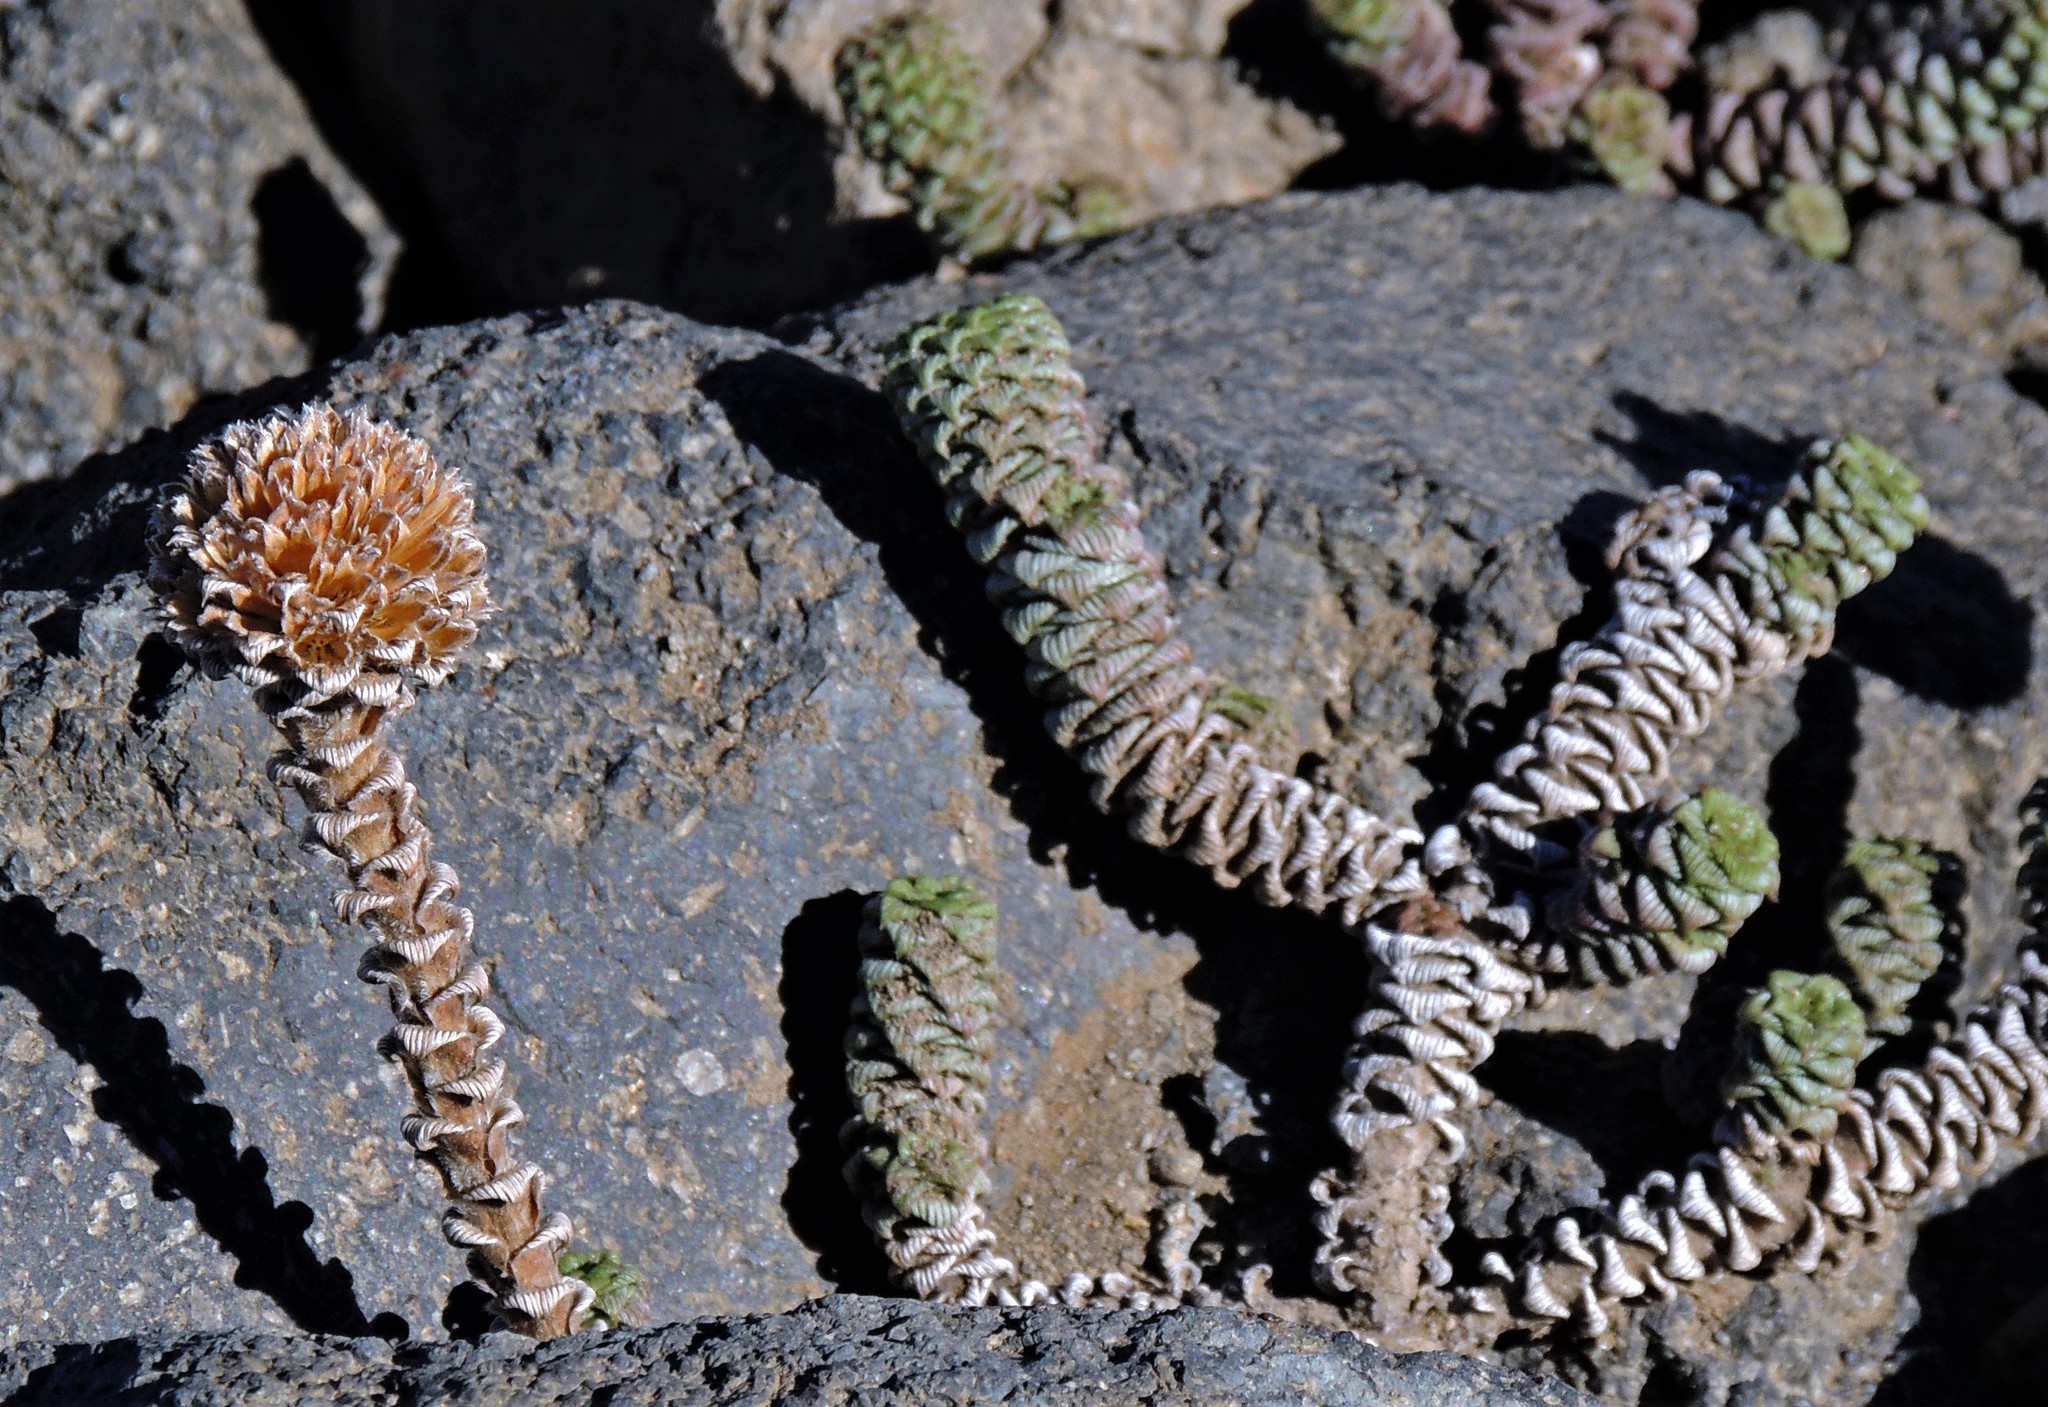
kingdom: Plantae
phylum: Tracheophyta
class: Magnoliopsida
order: Asterales
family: Asteraceae
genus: Nassauvia
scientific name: Nassauvia revoluta
